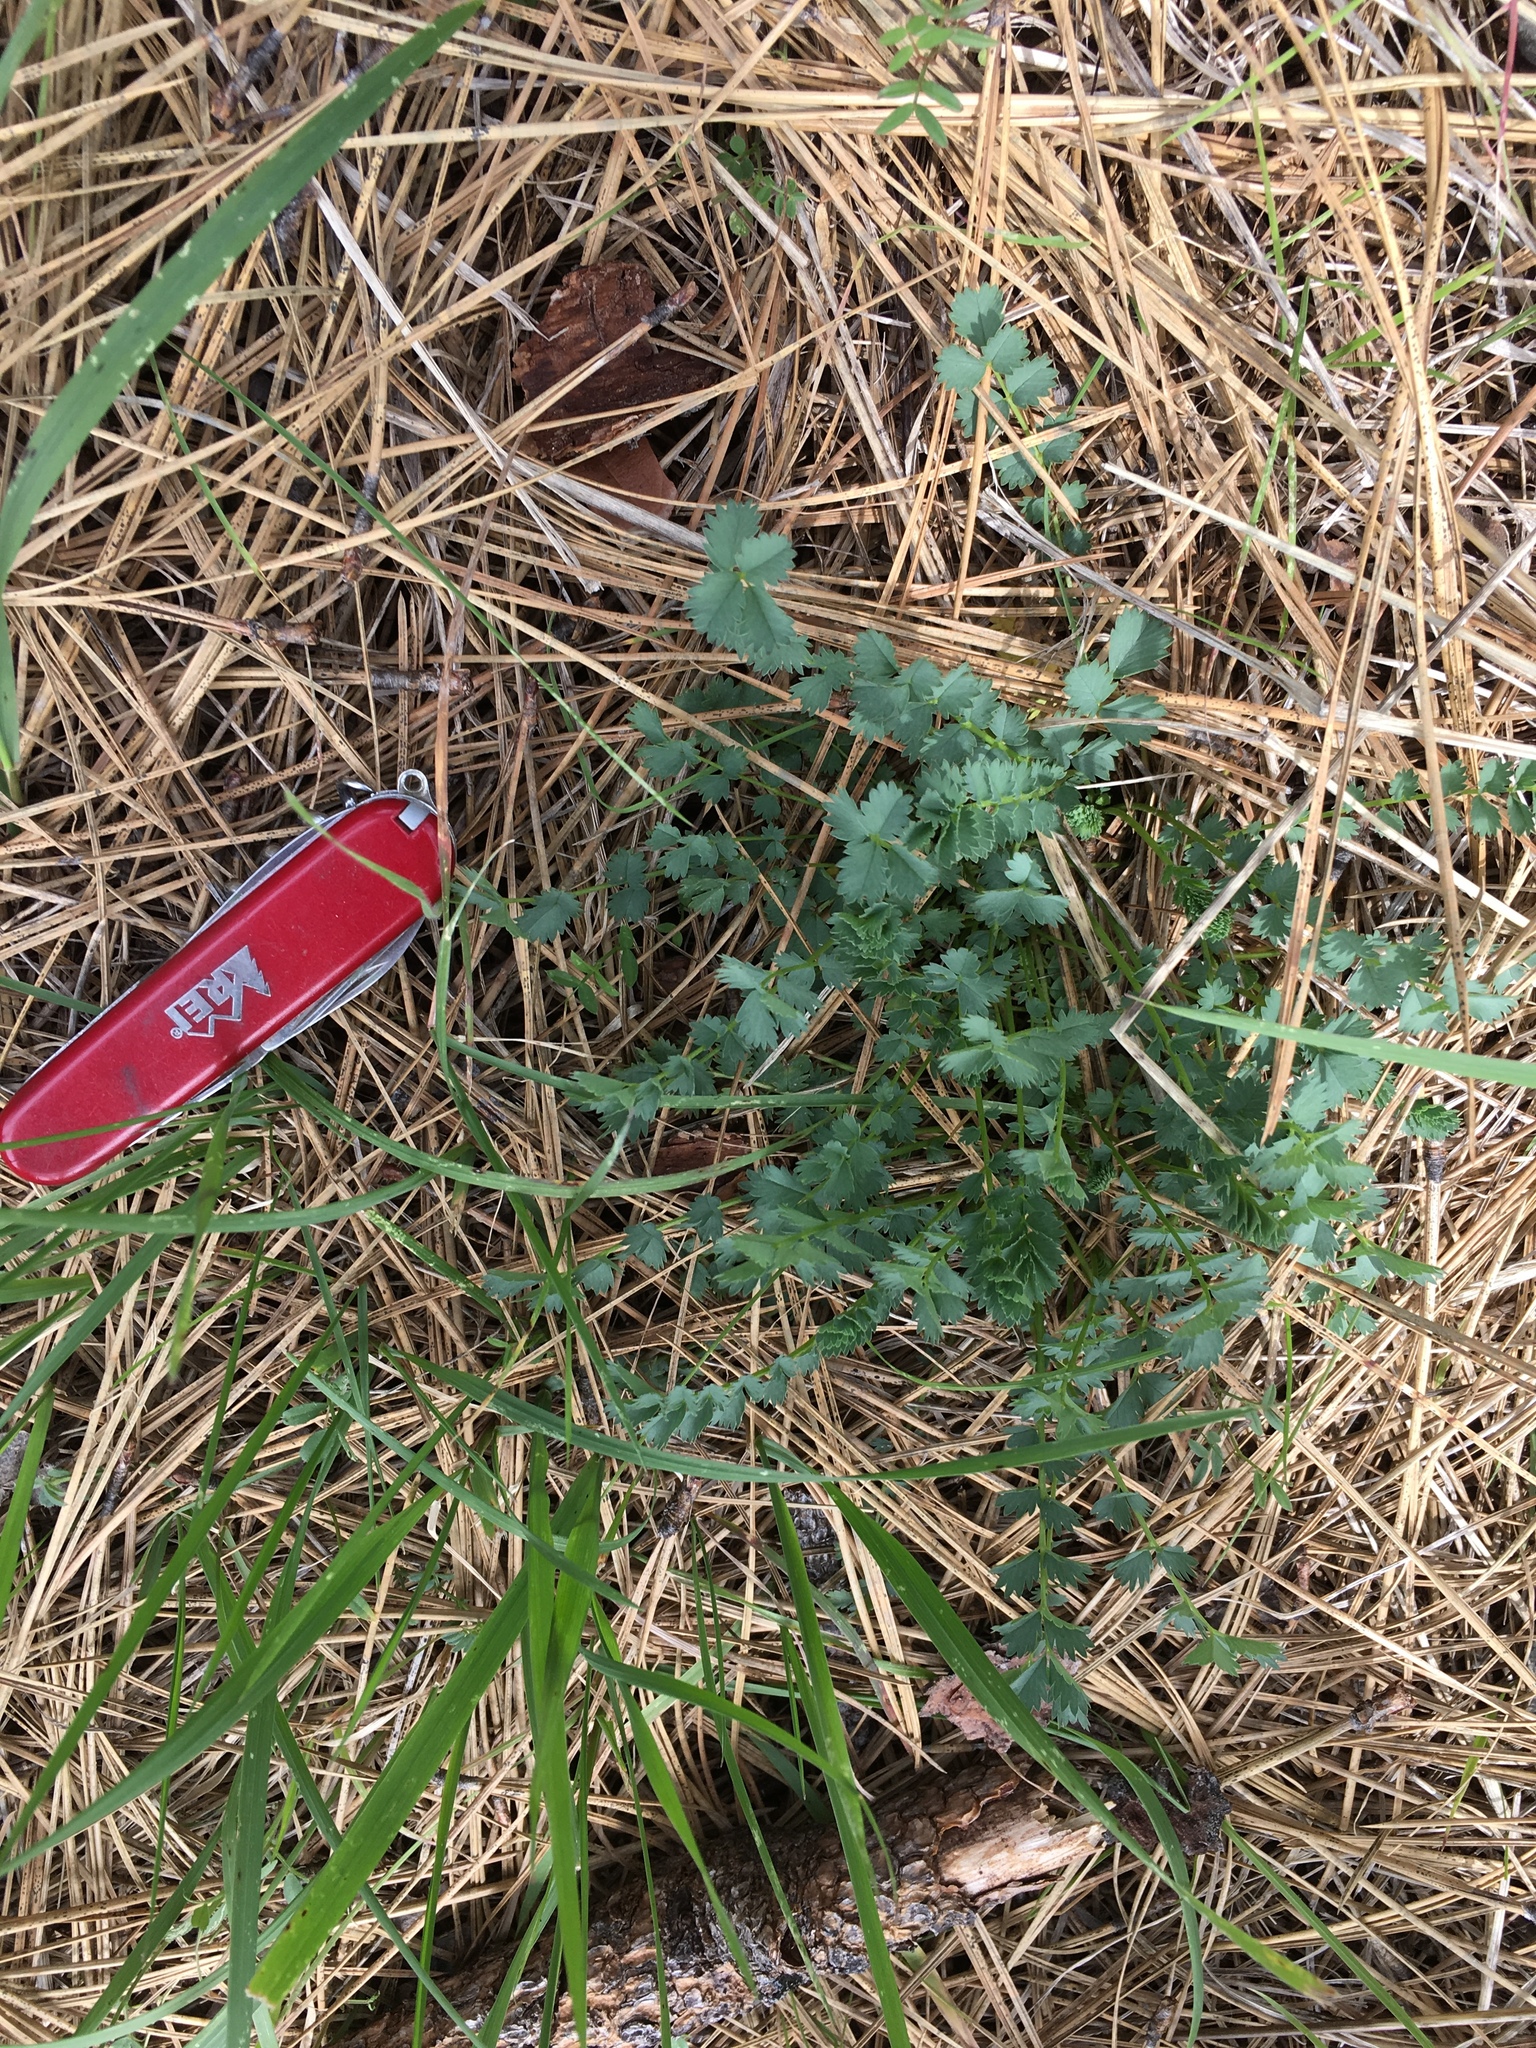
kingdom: Plantae
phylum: Tracheophyta
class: Magnoliopsida
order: Rosales
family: Rosaceae
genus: Poterium
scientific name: Poterium sanguisorba
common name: Salad burnet
